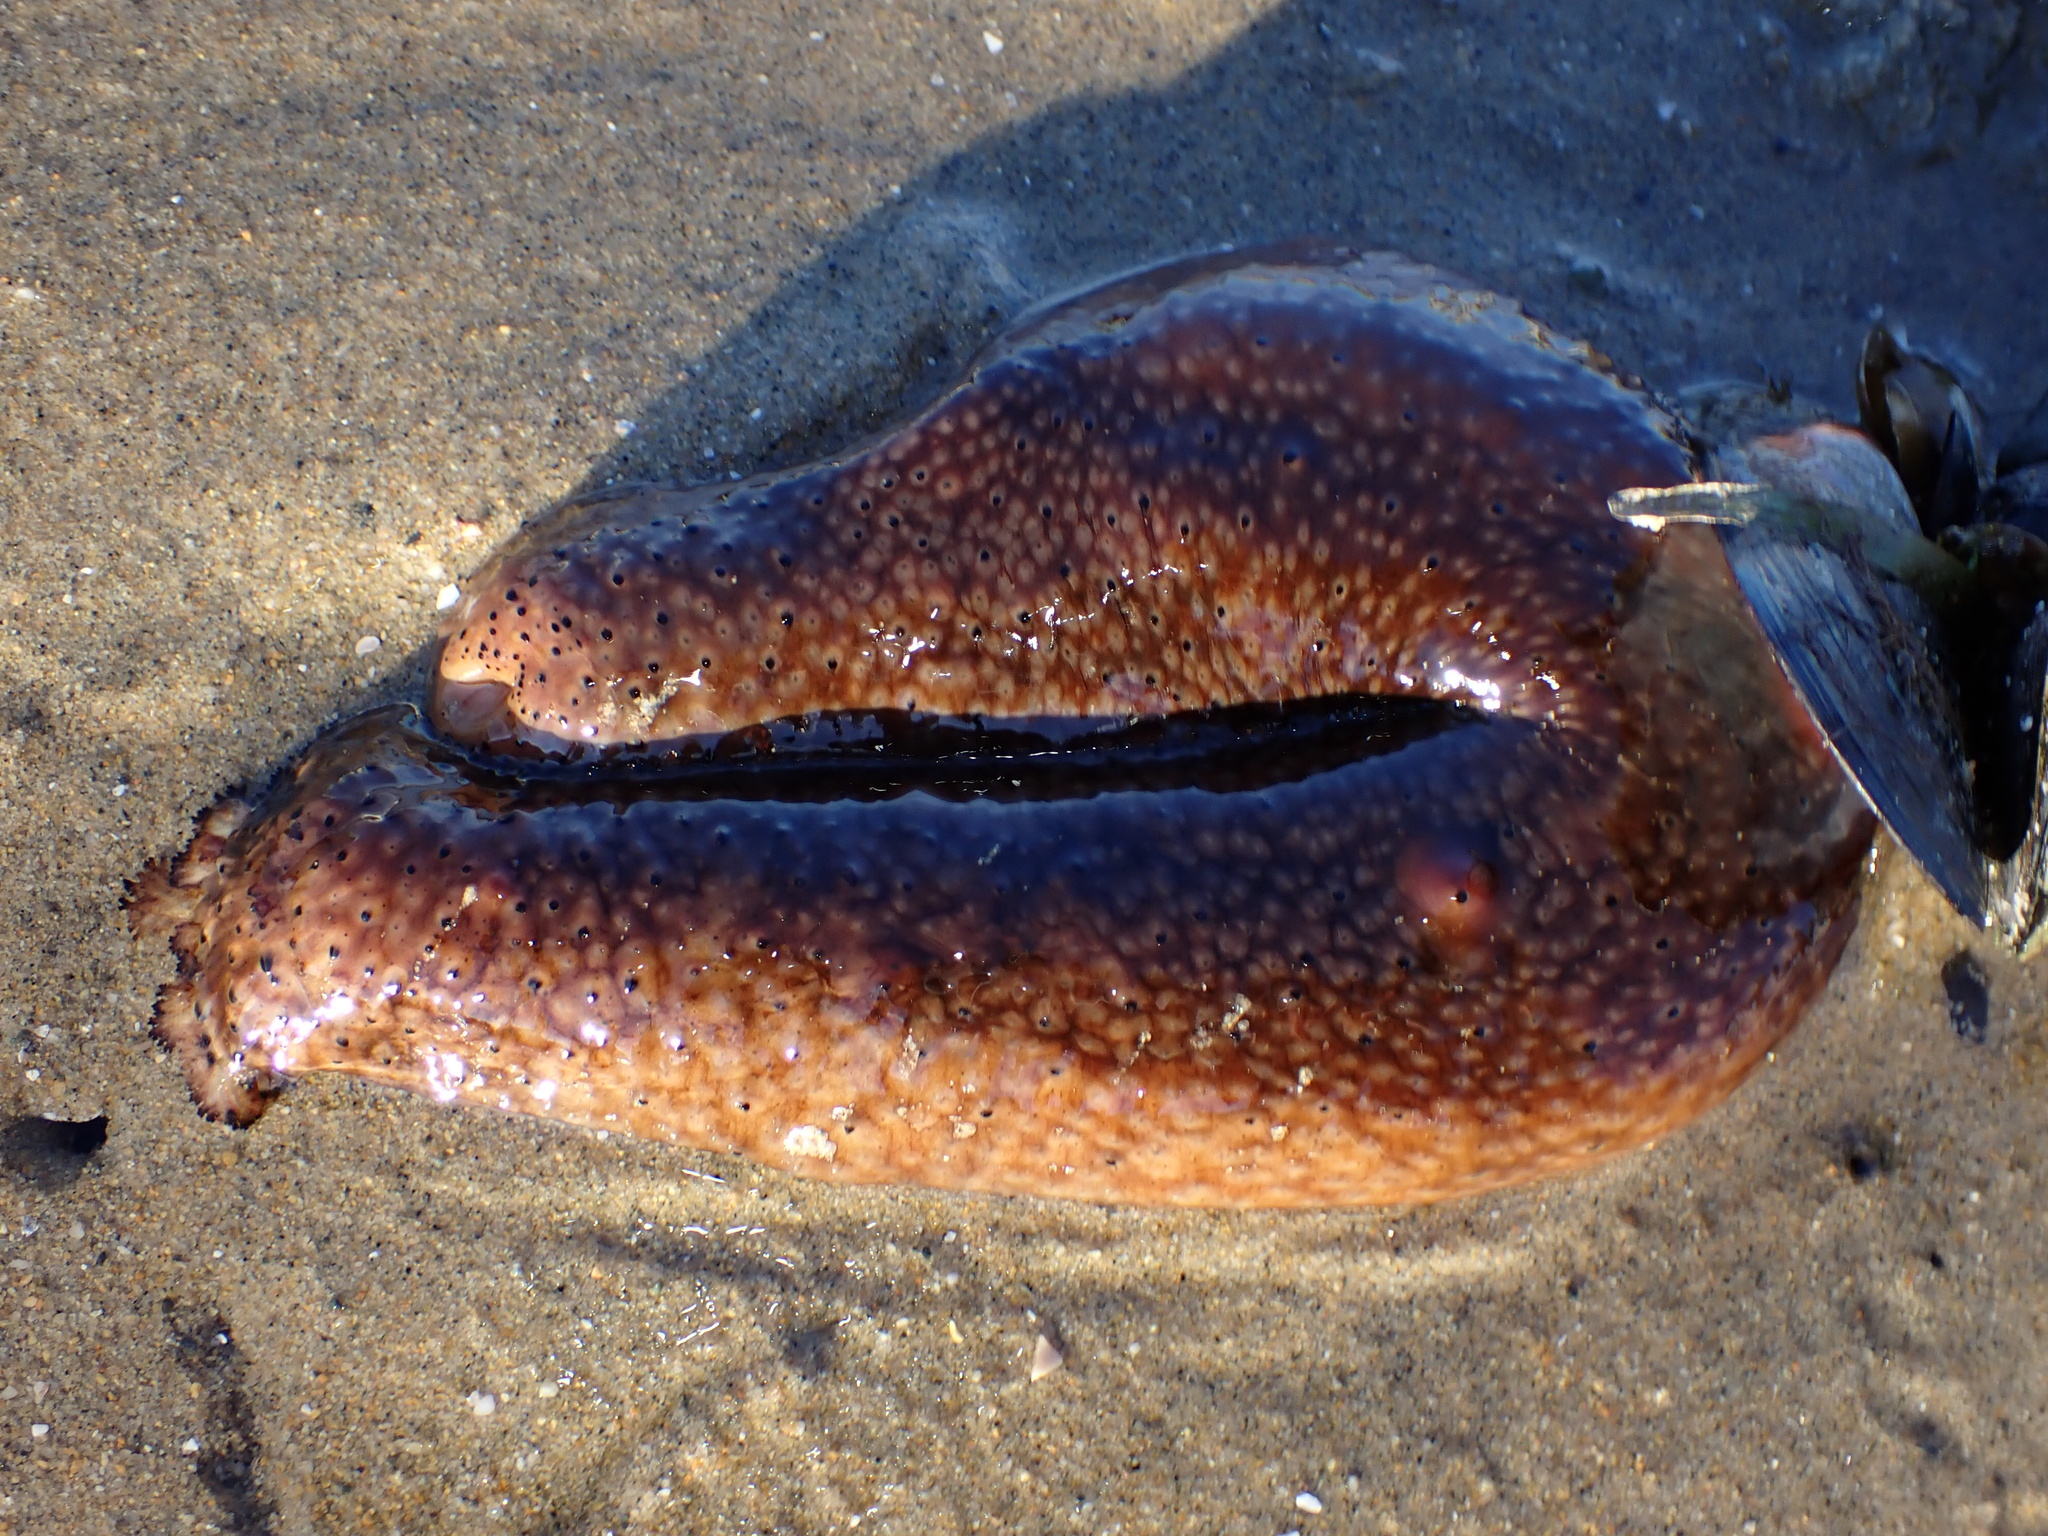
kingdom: Animalia
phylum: Echinodermata
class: Holothuroidea
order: Synallactida
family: Stichopodidae
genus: Apostichopus
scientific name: Apostichopus parvimensis
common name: Warty sea cucumber
